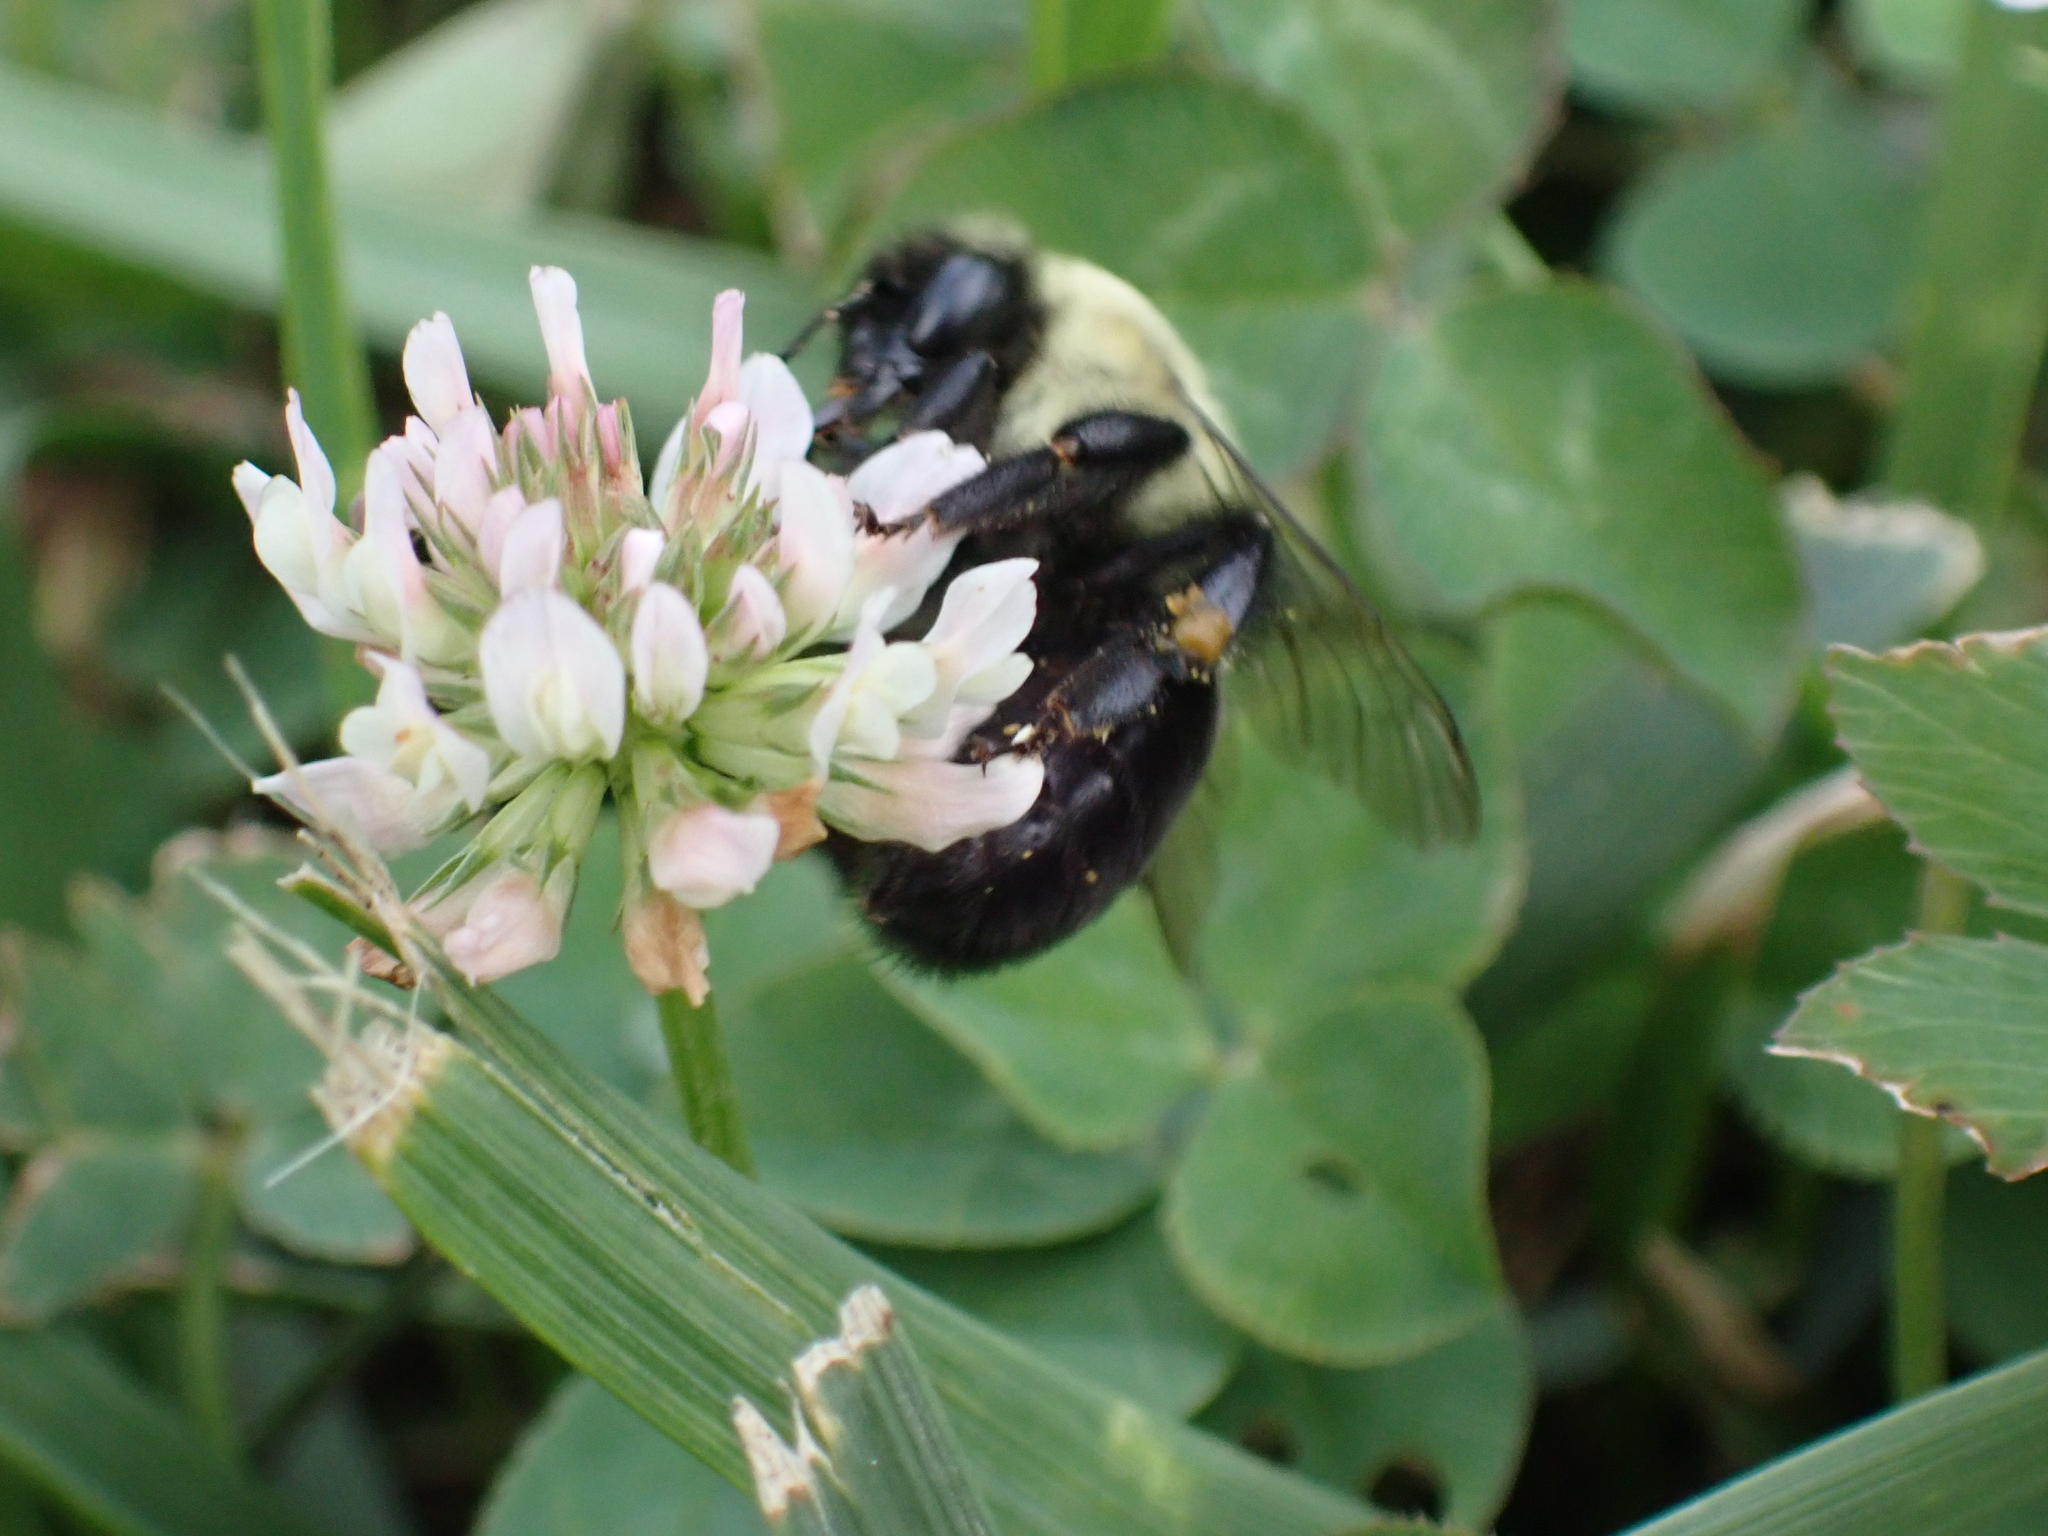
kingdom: Animalia
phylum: Arthropoda
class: Insecta
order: Hymenoptera
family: Apidae
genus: Bombus
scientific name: Bombus impatiens
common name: Common eastern bumble bee
